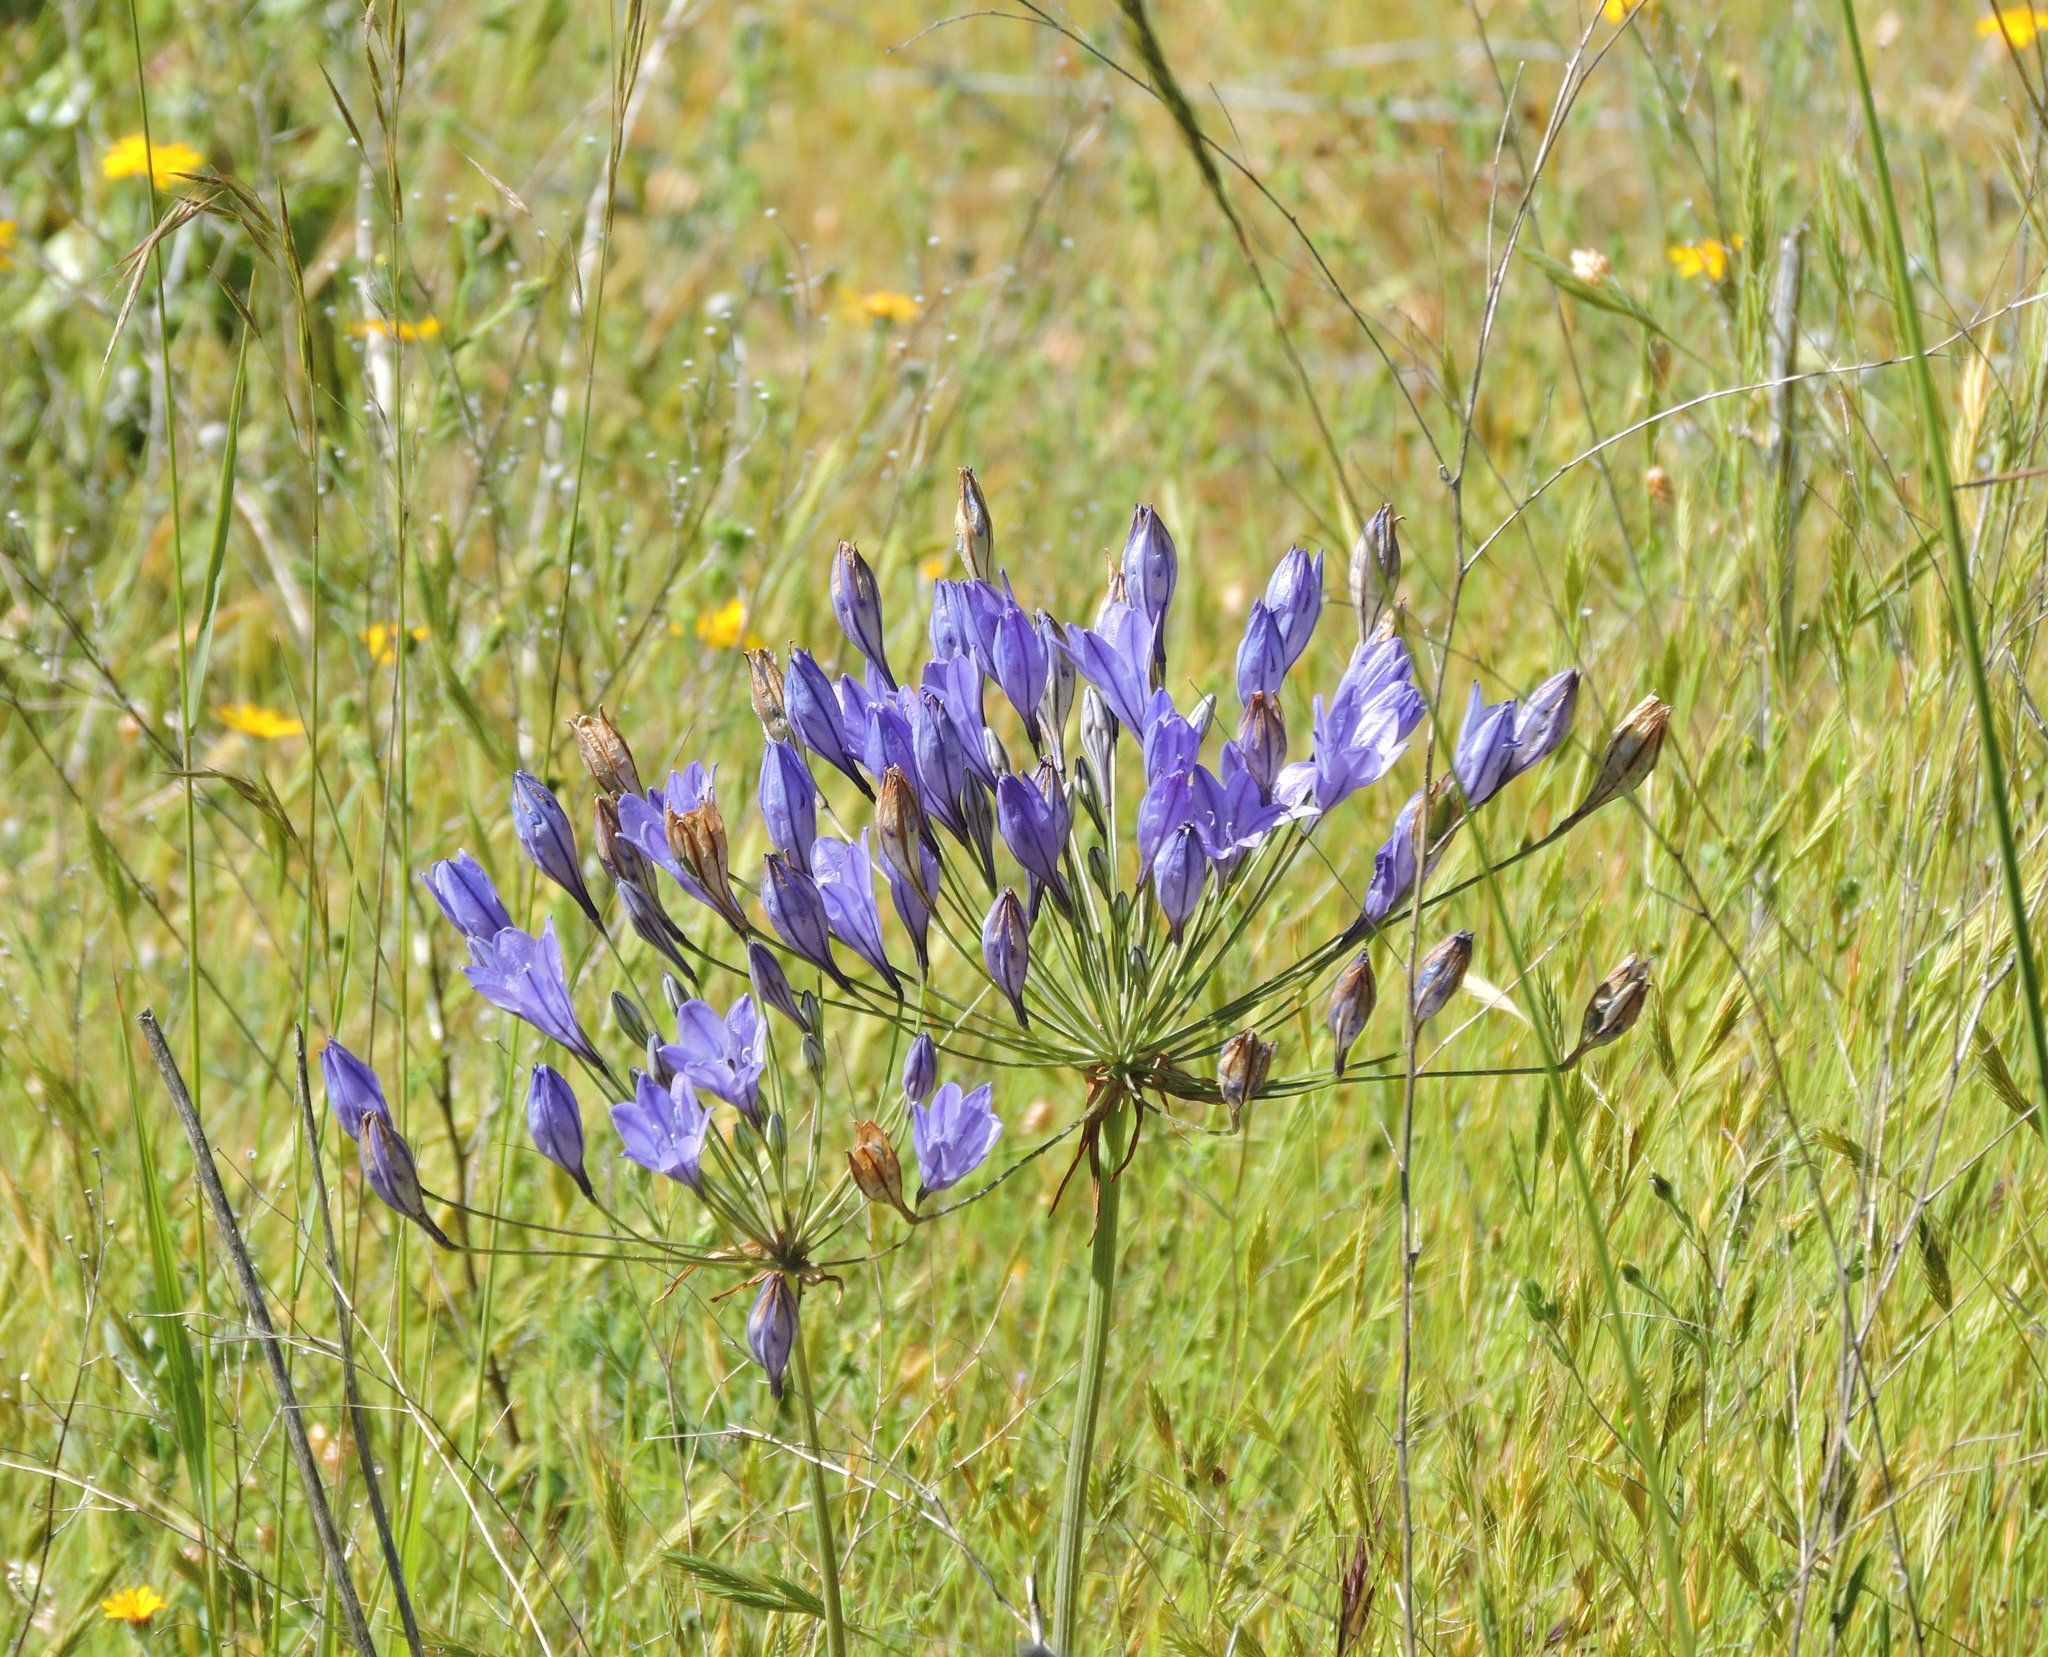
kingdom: Plantae
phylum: Tracheophyta
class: Liliopsida
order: Asparagales
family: Asparagaceae
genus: Triteleia
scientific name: Triteleia laxa
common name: Triplet-lily
